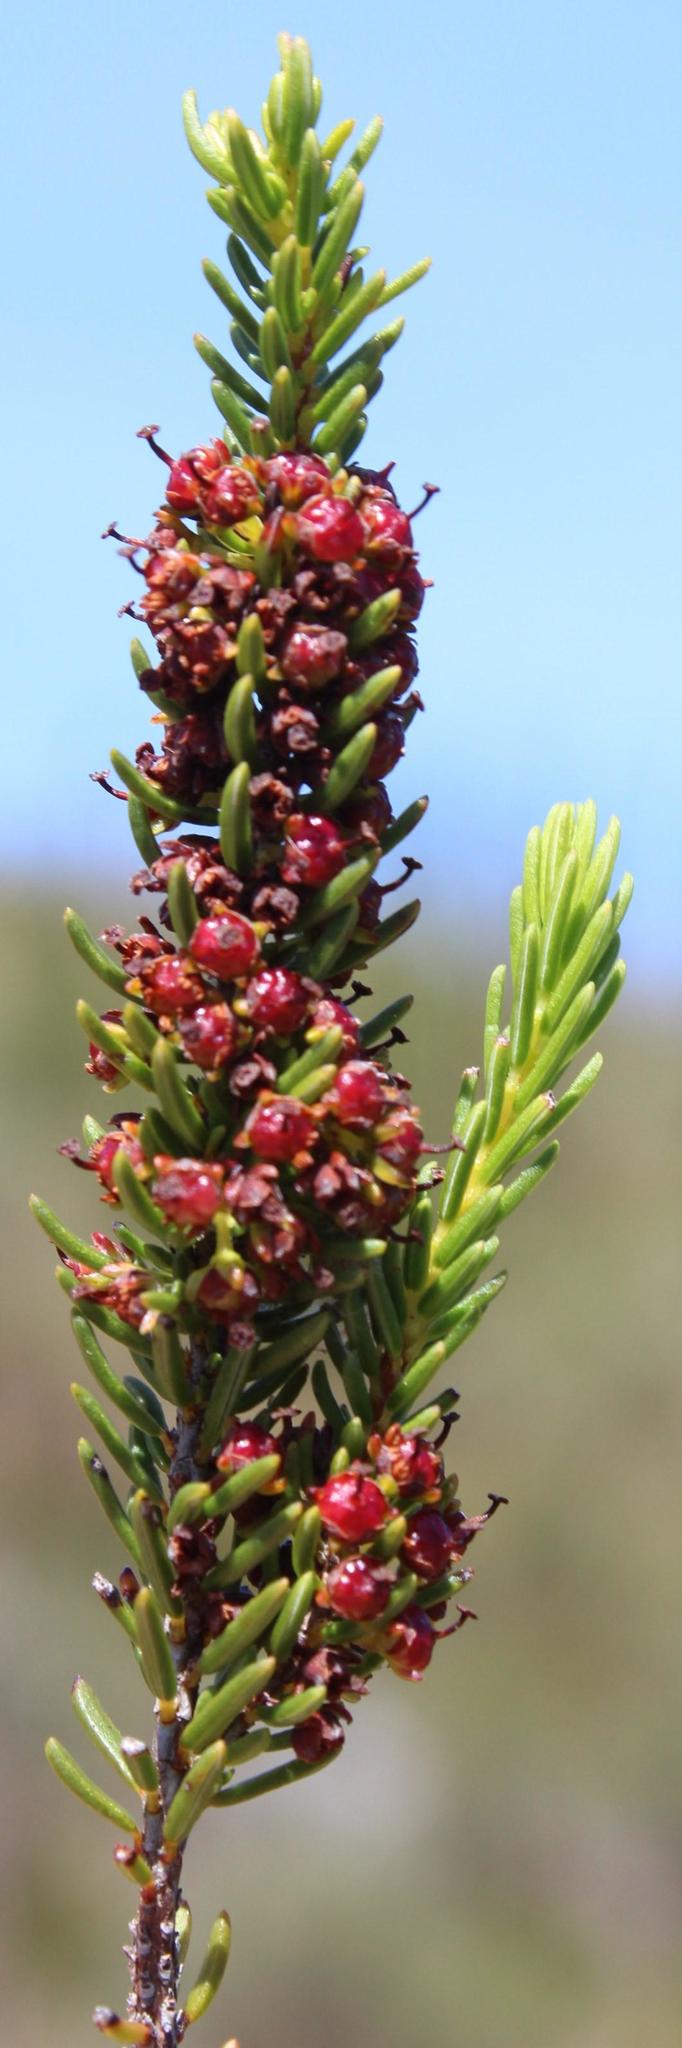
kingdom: Plantae
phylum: Tracheophyta
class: Magnoliopsida
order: Ericales
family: Ericaceae
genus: Erica
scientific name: Erica coarctata
